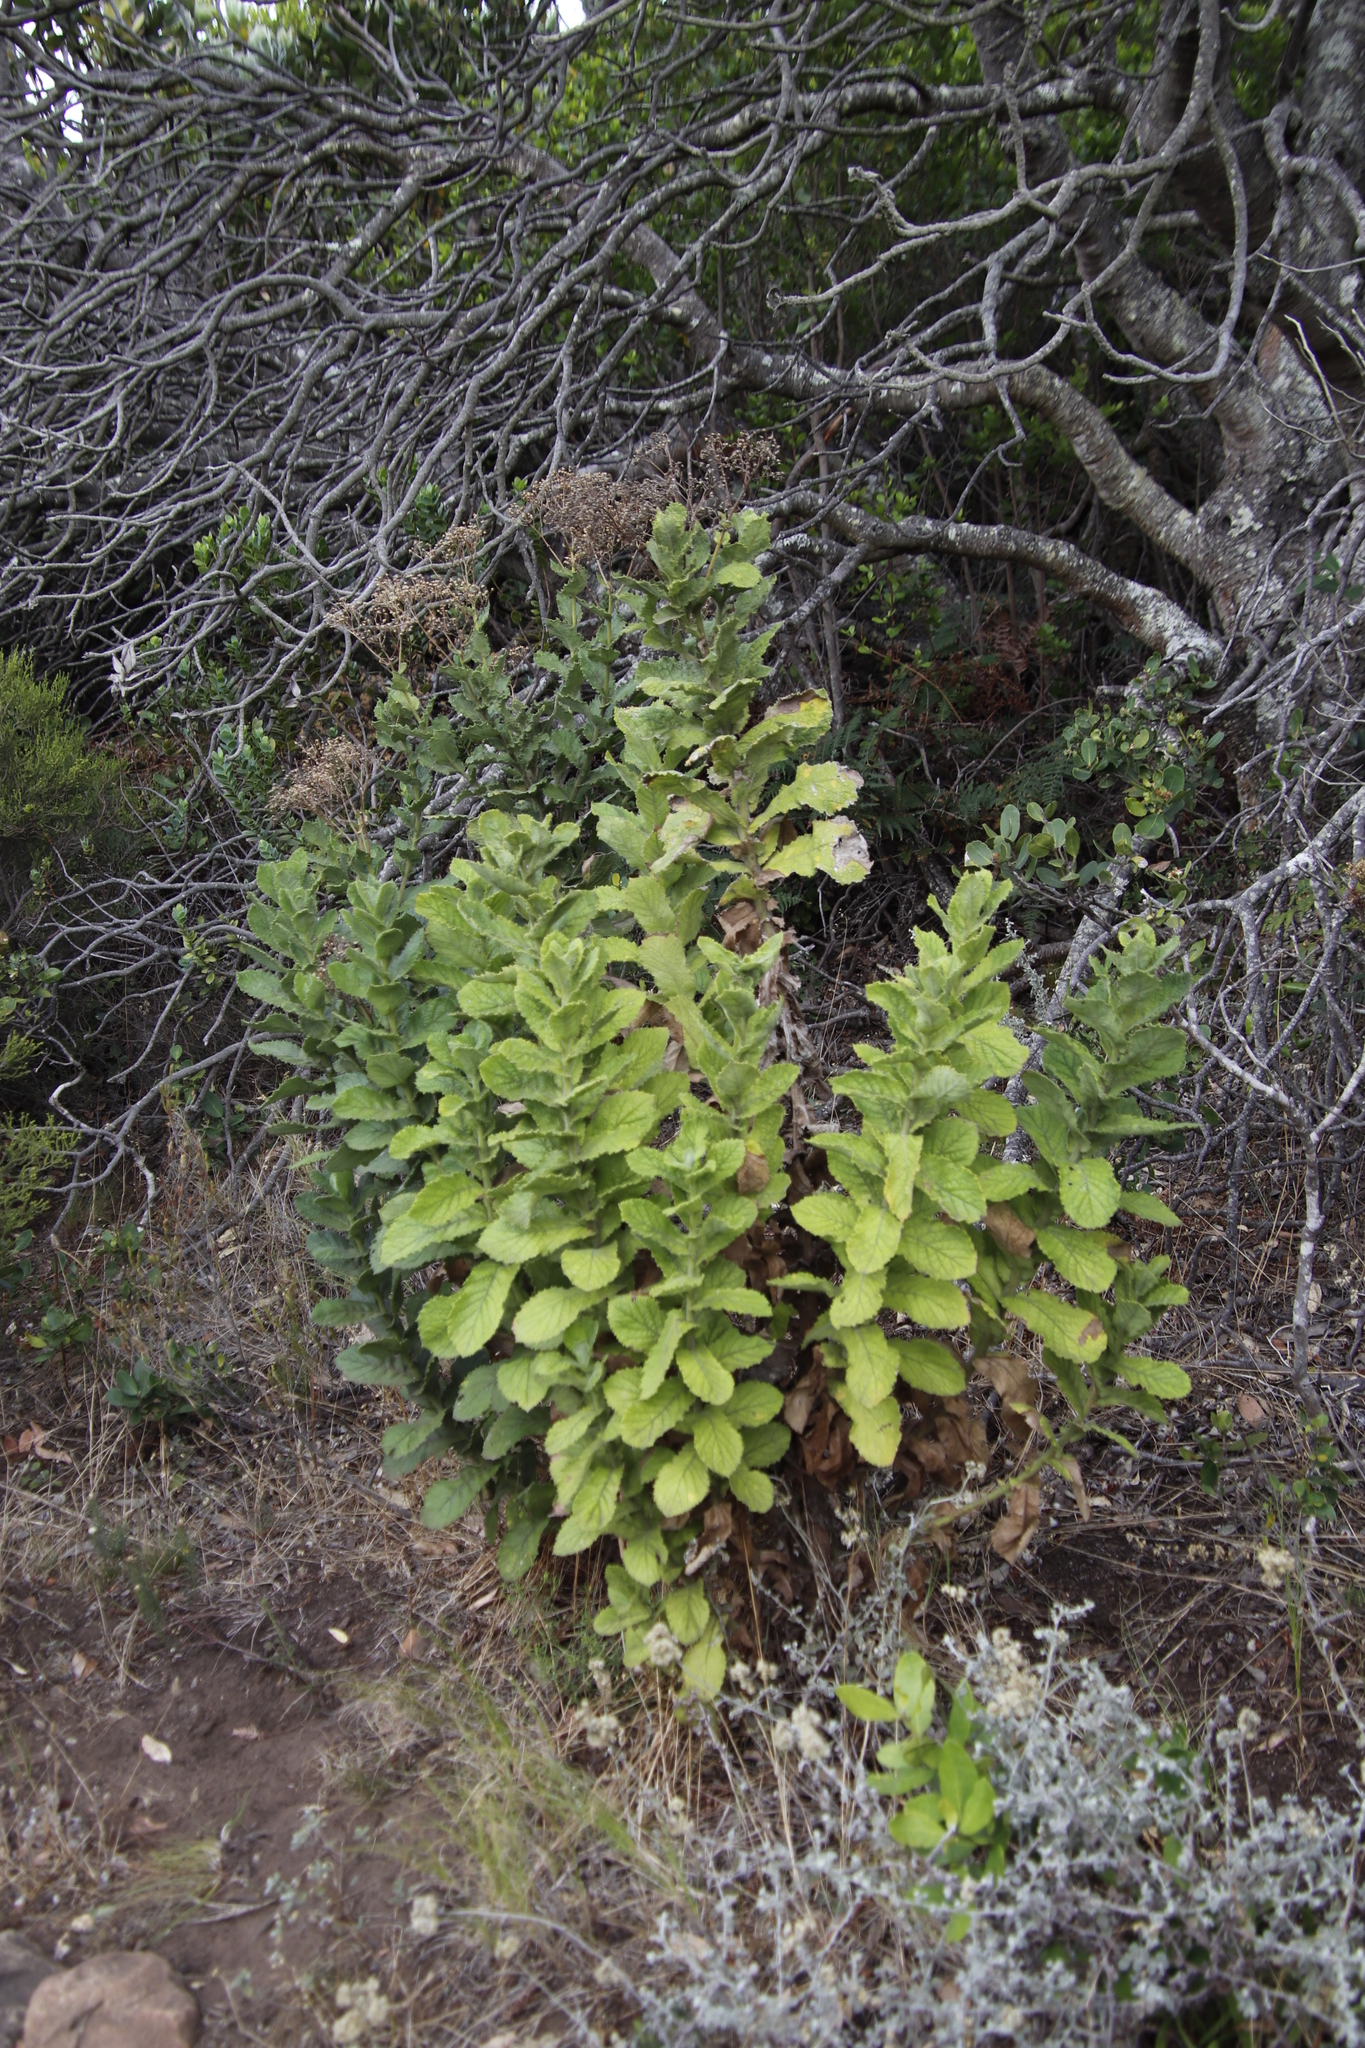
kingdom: Plantae
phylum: Tracheophyta
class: Magnoliopsida
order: Asterales
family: Asteraceae
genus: Senecio
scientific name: Senecio rigidus
